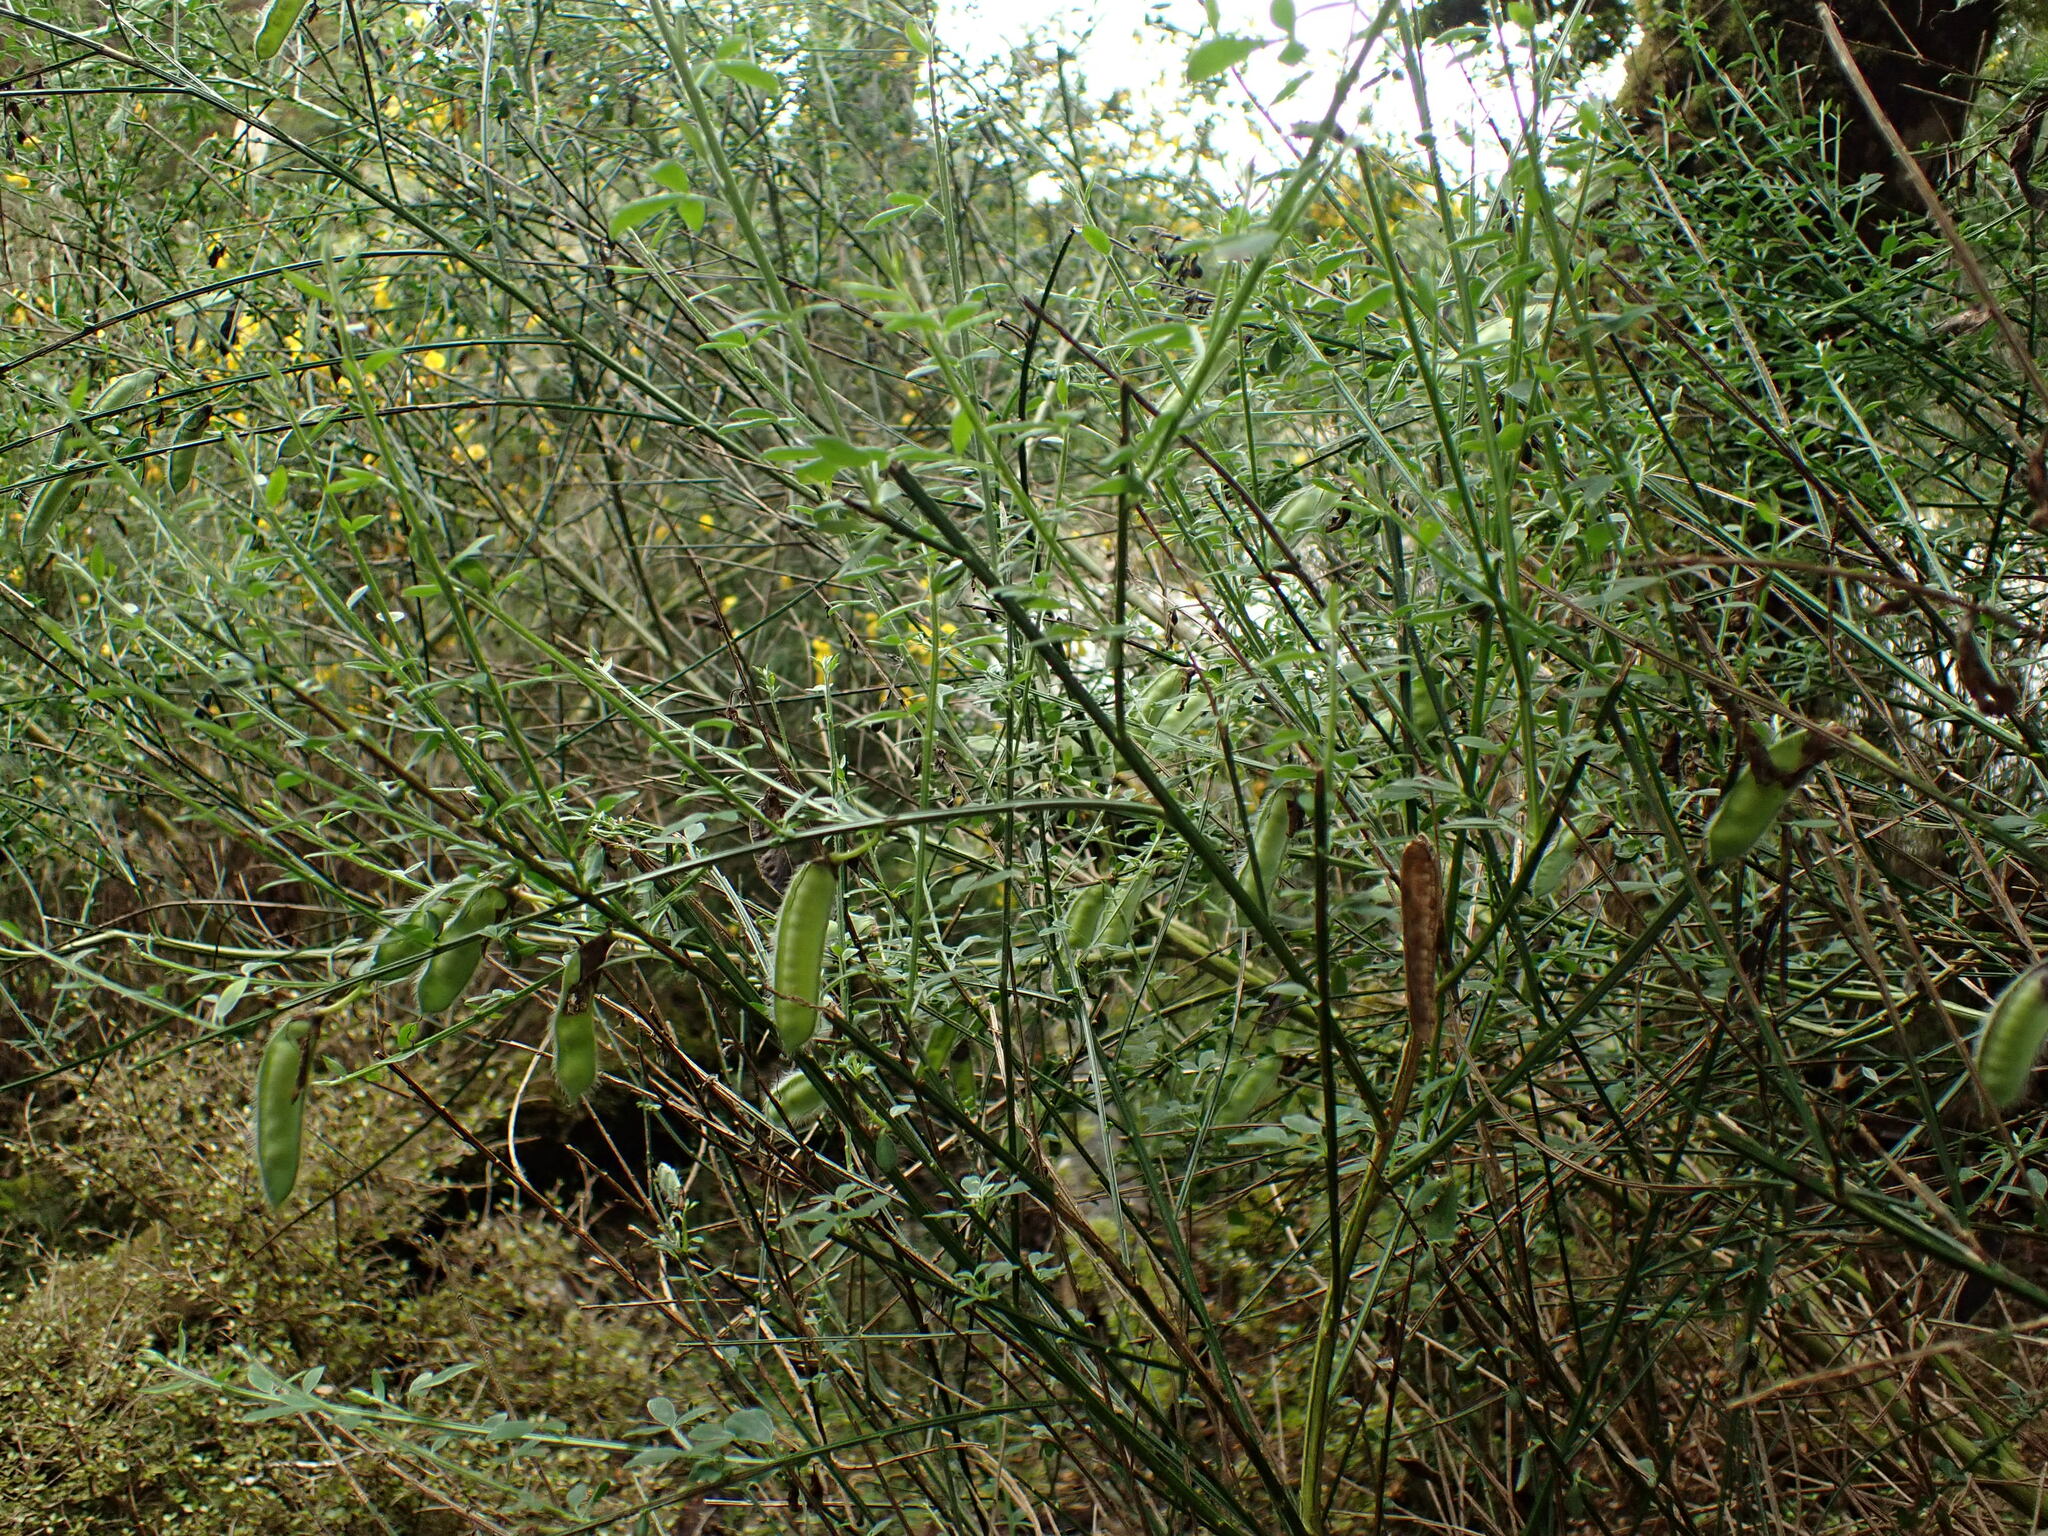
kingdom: Plantae
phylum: Tracheophyta
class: Magnoliopsida
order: Fabales
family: Fabaceae
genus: Cytisus
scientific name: Cytisus scoparius
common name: Scotch broom
